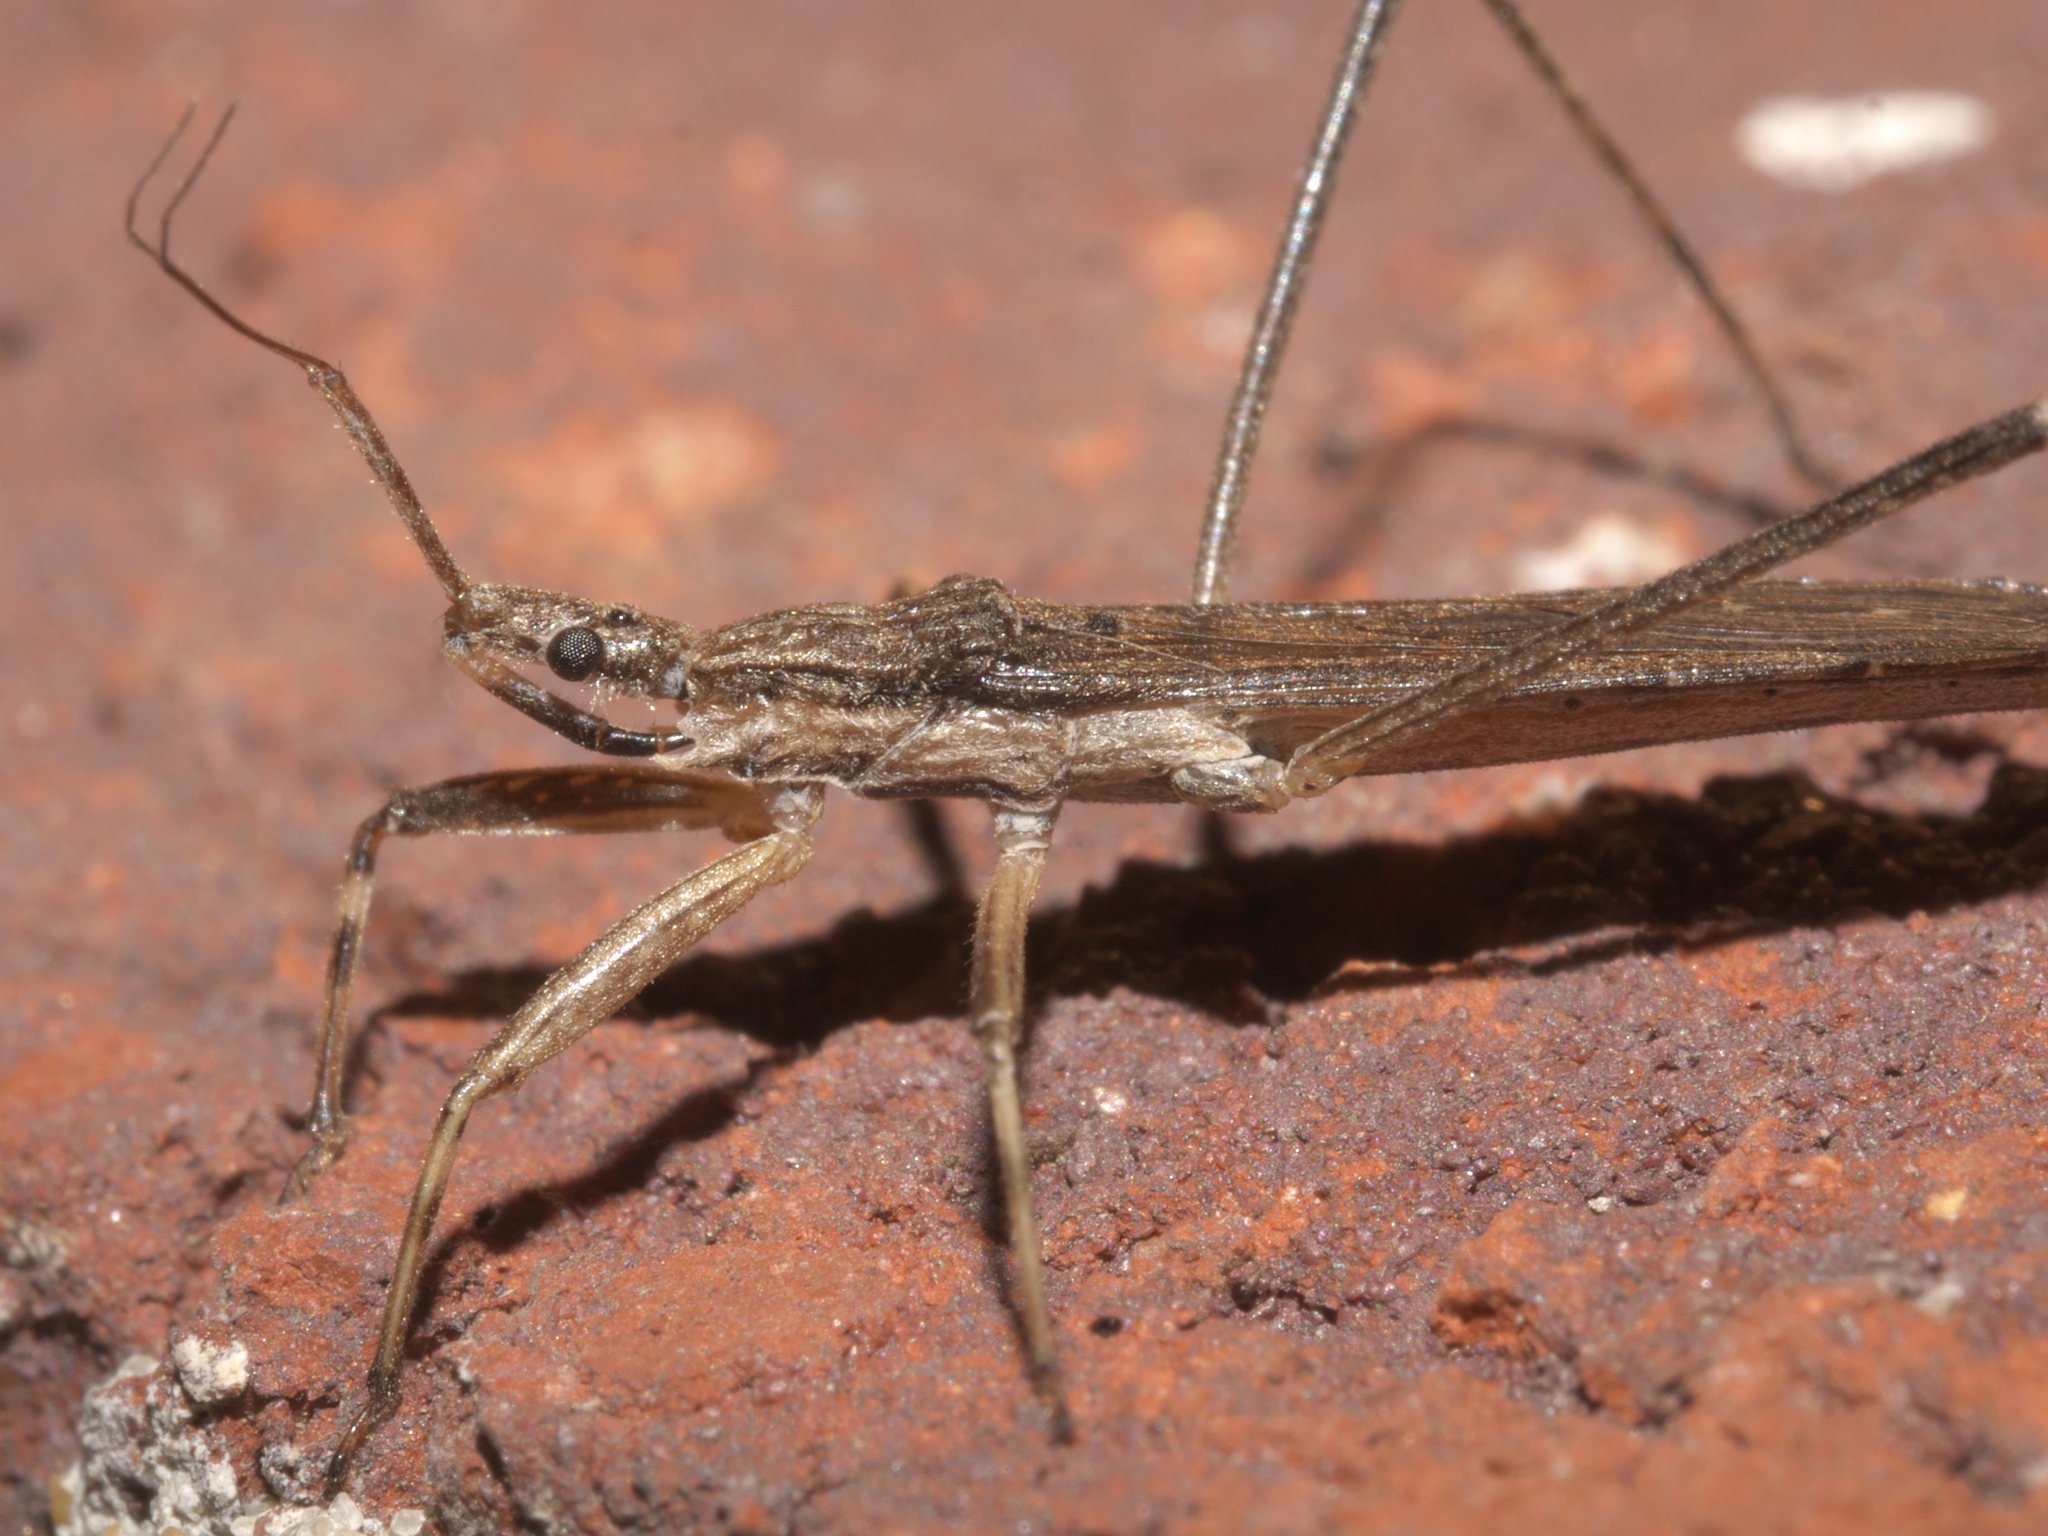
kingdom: Animalia
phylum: Arthropoda
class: Insecta
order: Hemiptera
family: Reduviidae
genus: Pygolampis
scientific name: Pygolampis pectoralis
